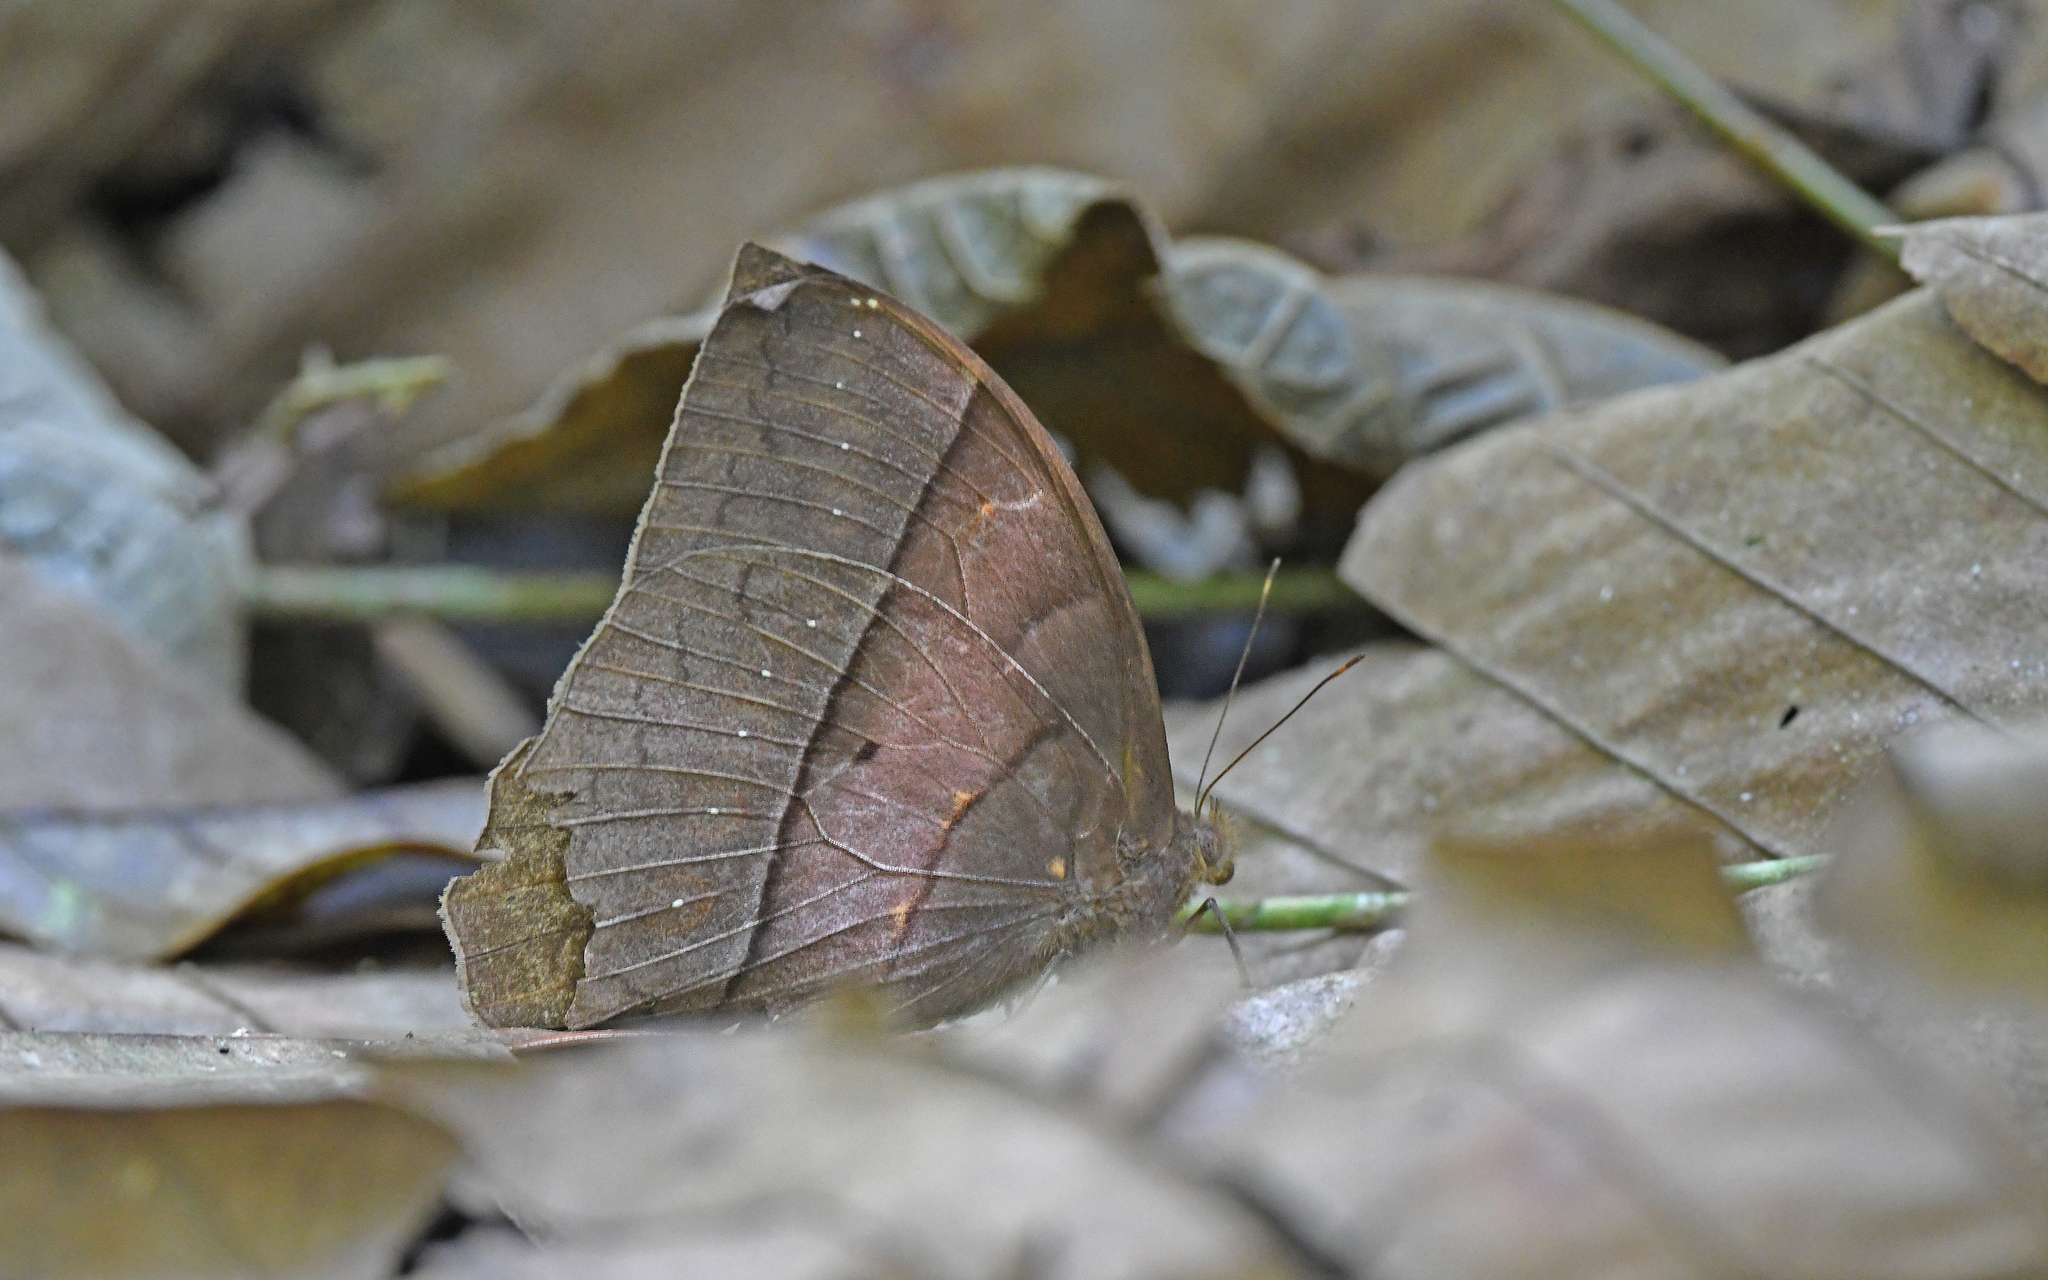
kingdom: Animalia
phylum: Arthropoda
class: Insecta
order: Lepidoptera
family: Nymphalidae
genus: Taygetis
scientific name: Taygetis oyapock
